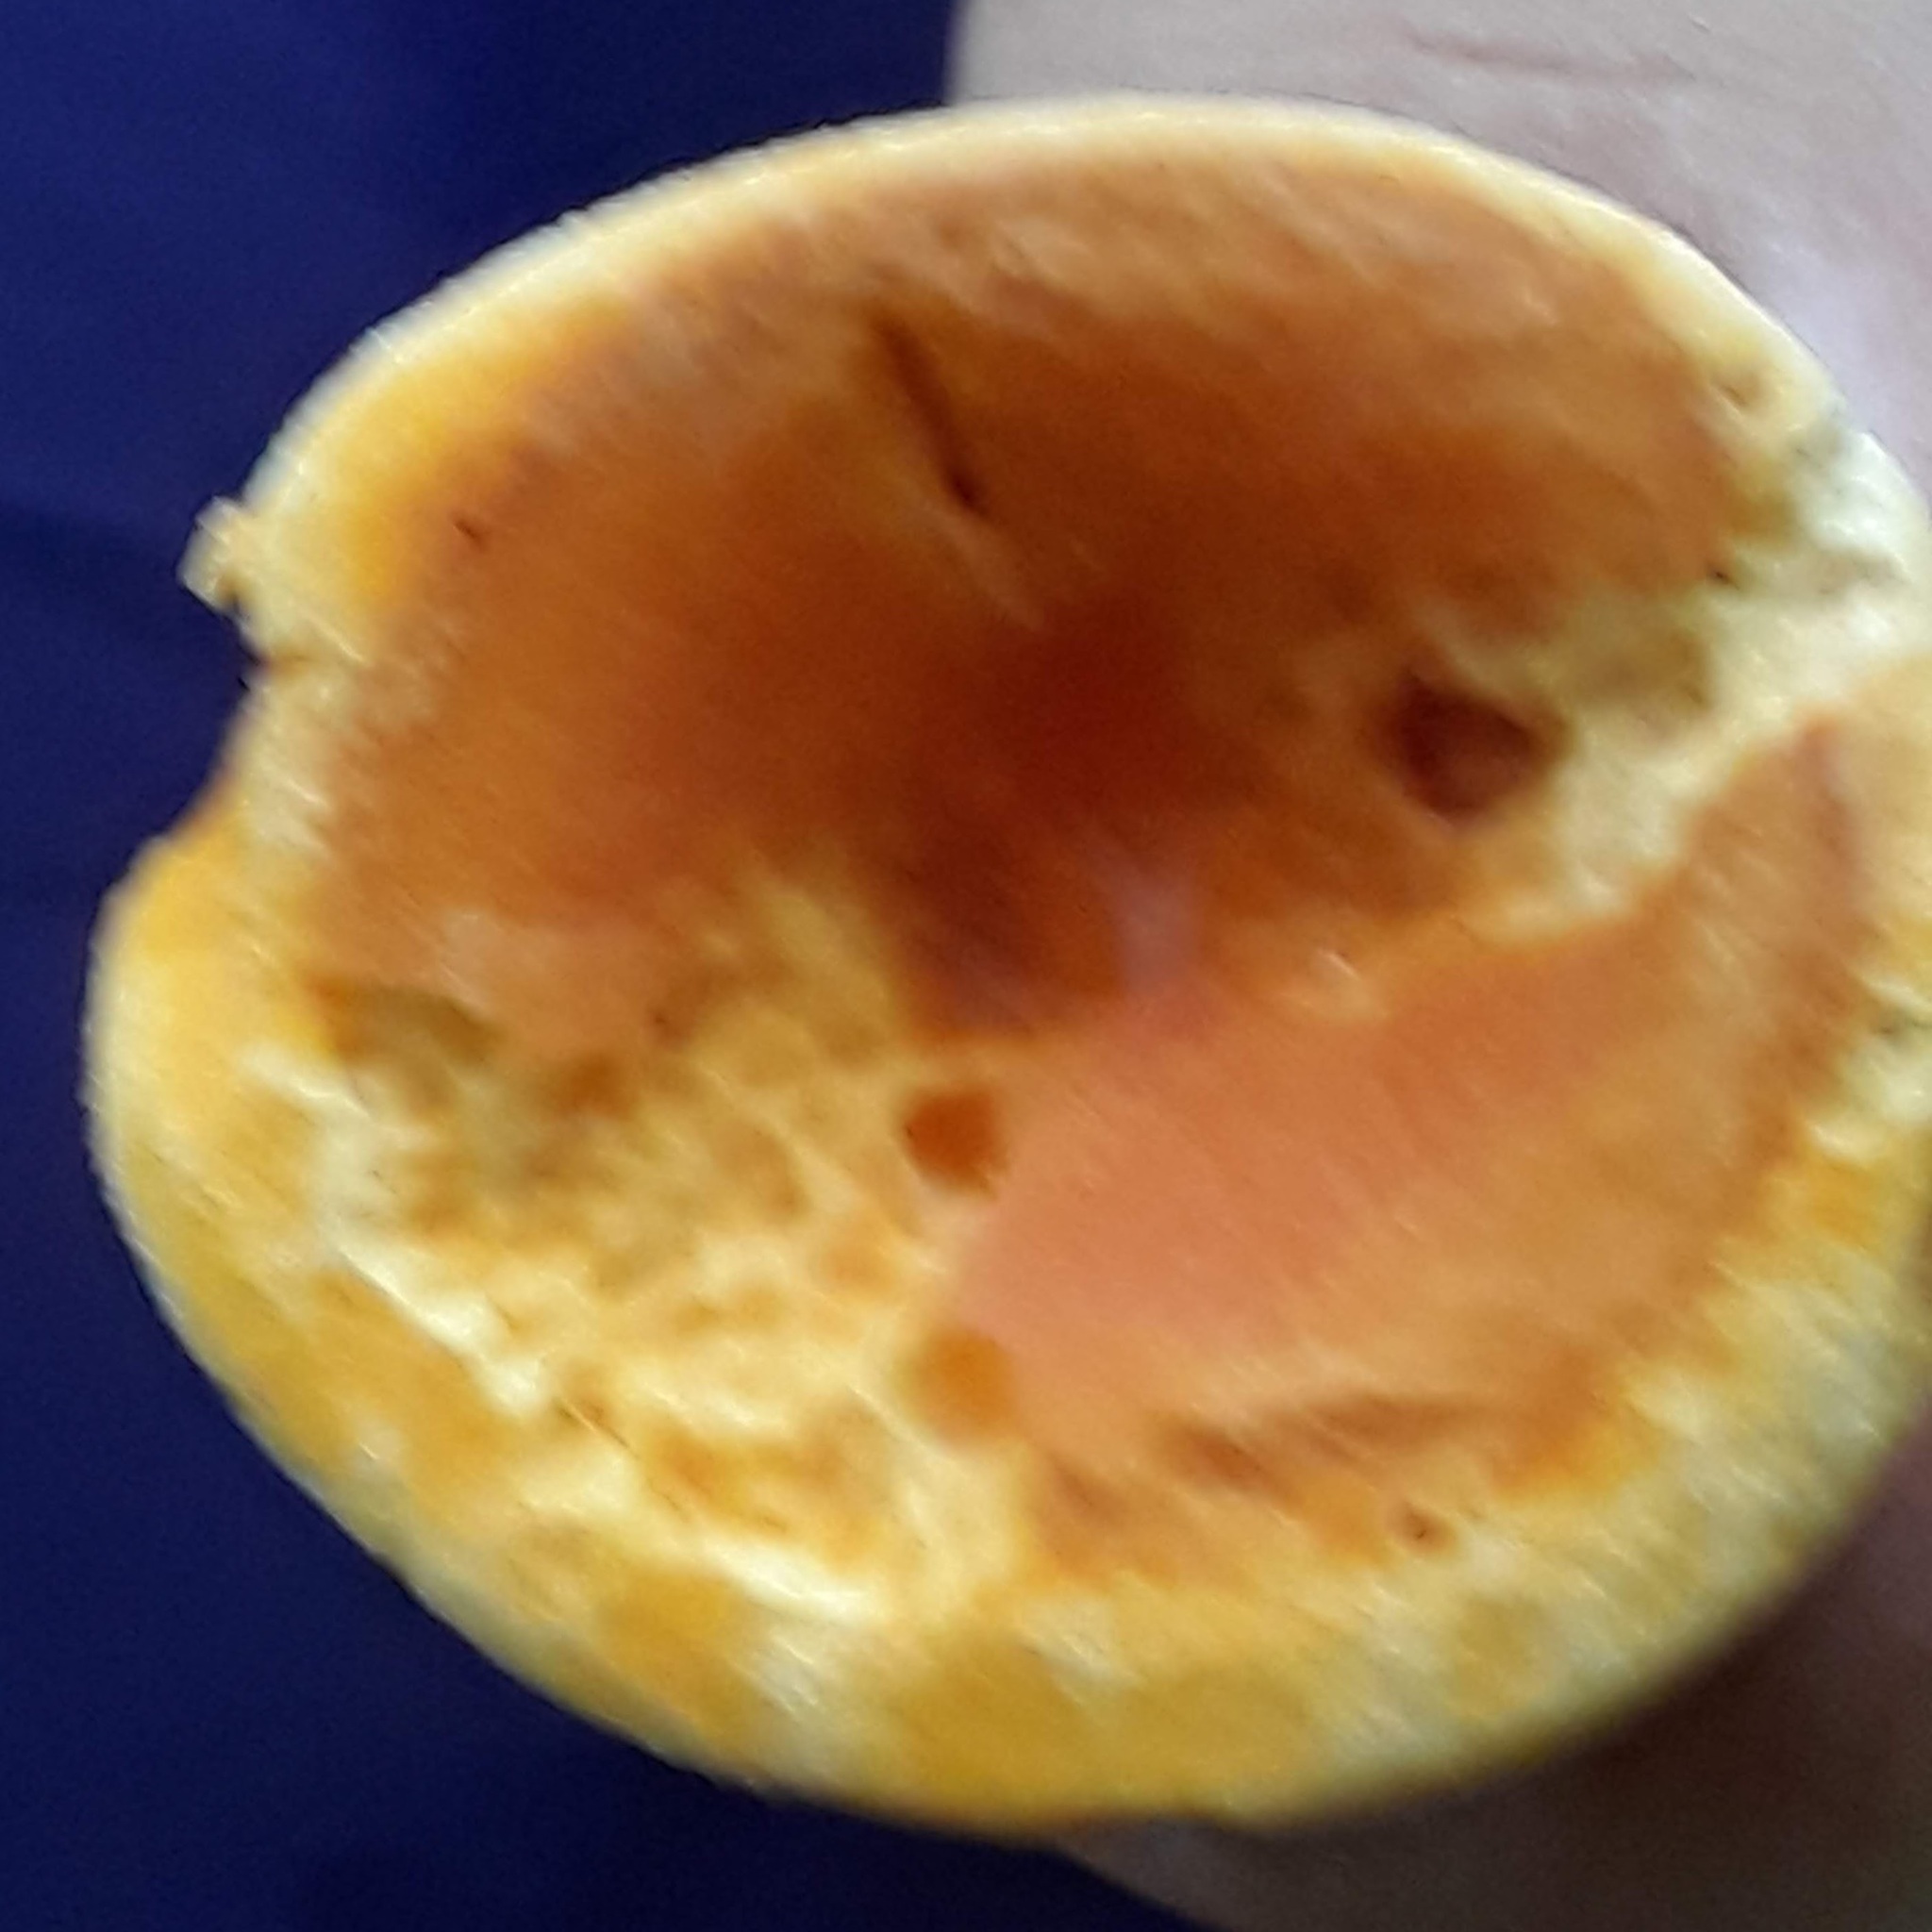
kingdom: Fungi
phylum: Basidiomycota
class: Agaricomycetes
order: Boletales
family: Hygrophoropsidaceae
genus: Hygrophoropsis
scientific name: Hygrophoropsis aurantiaca
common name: False chanterelle
